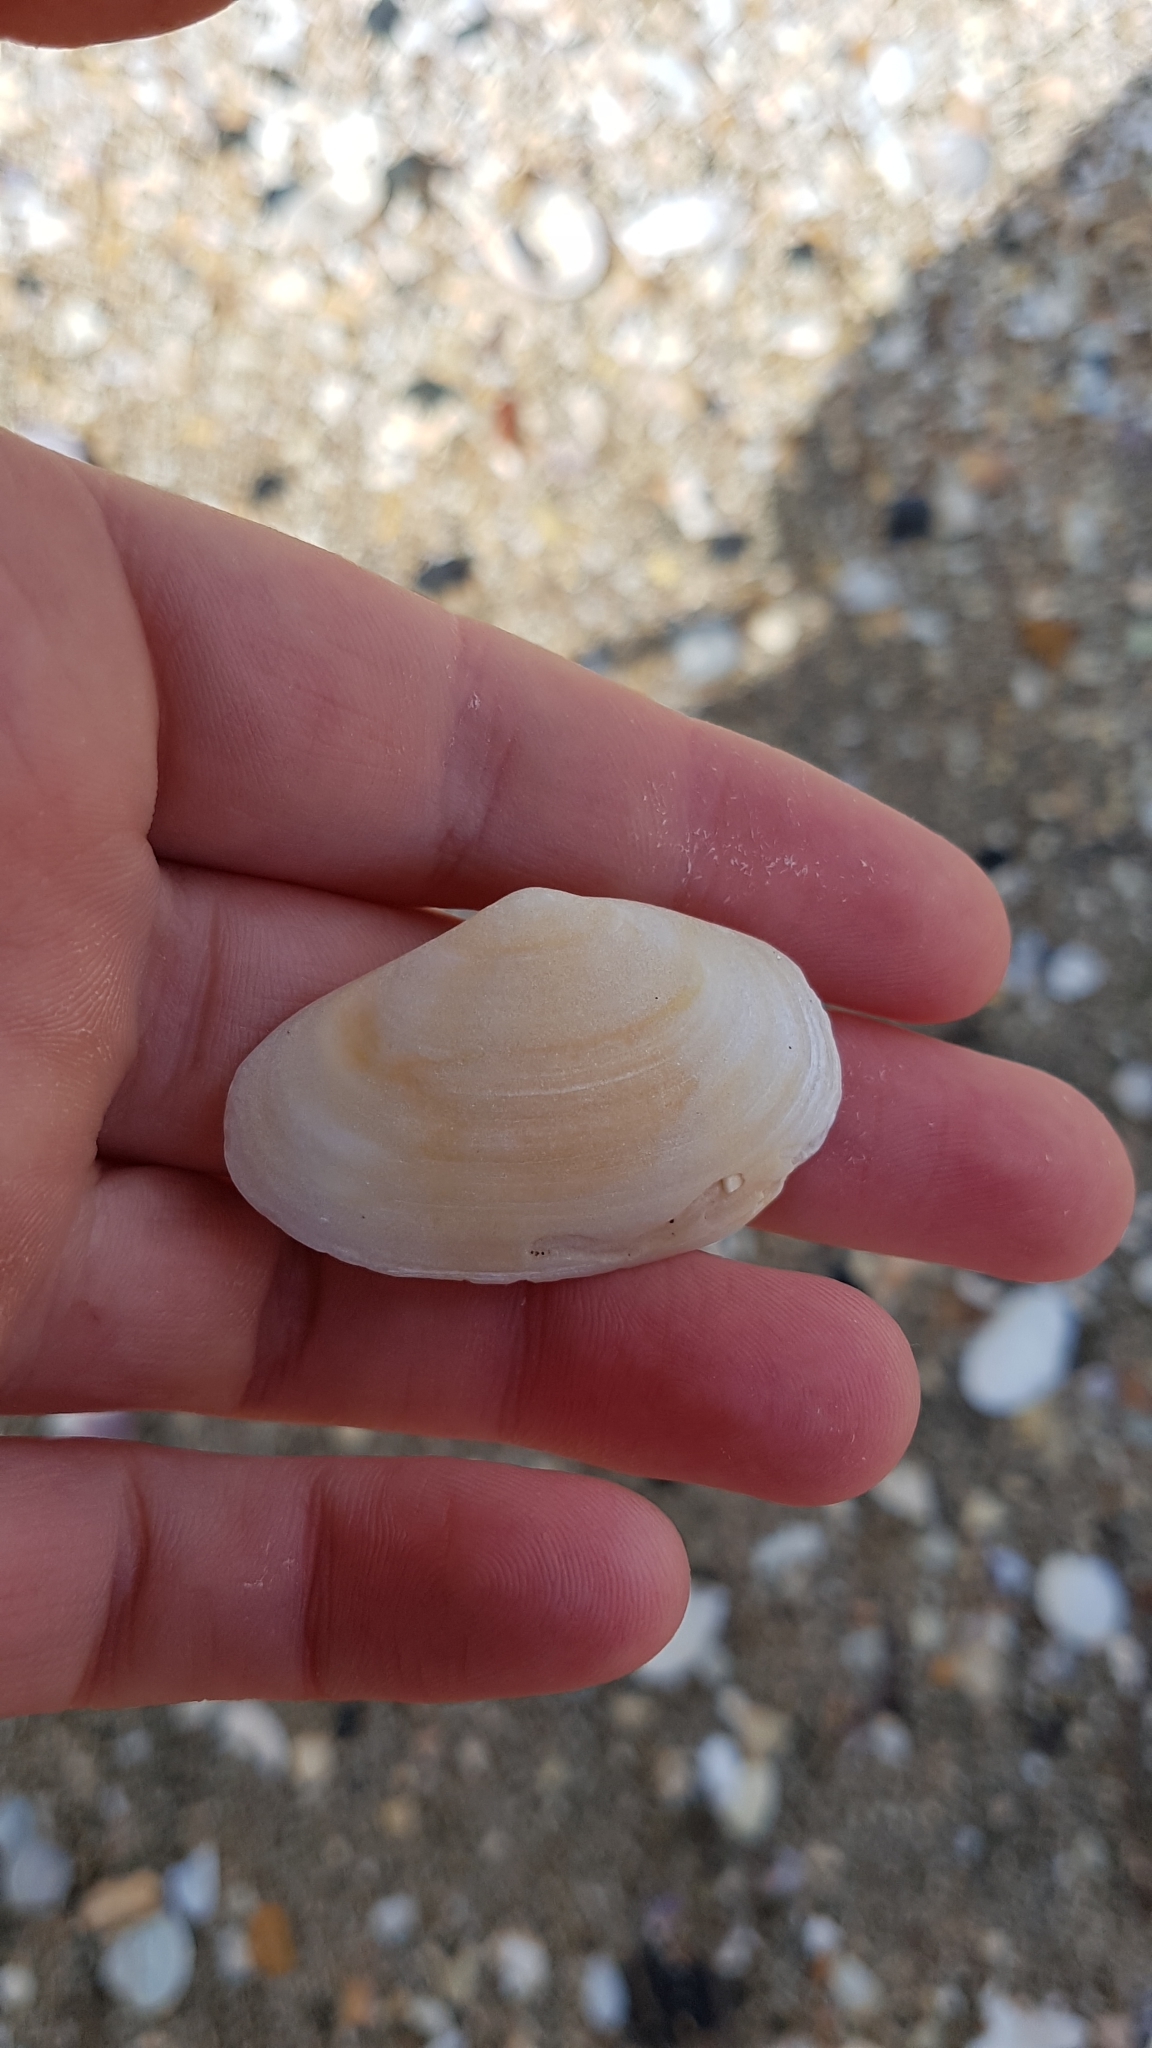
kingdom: Animalia
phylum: Mollusca
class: Bivalvia
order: Venerida
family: Mesodesmatidae
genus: Paphies
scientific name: Paphies australis
